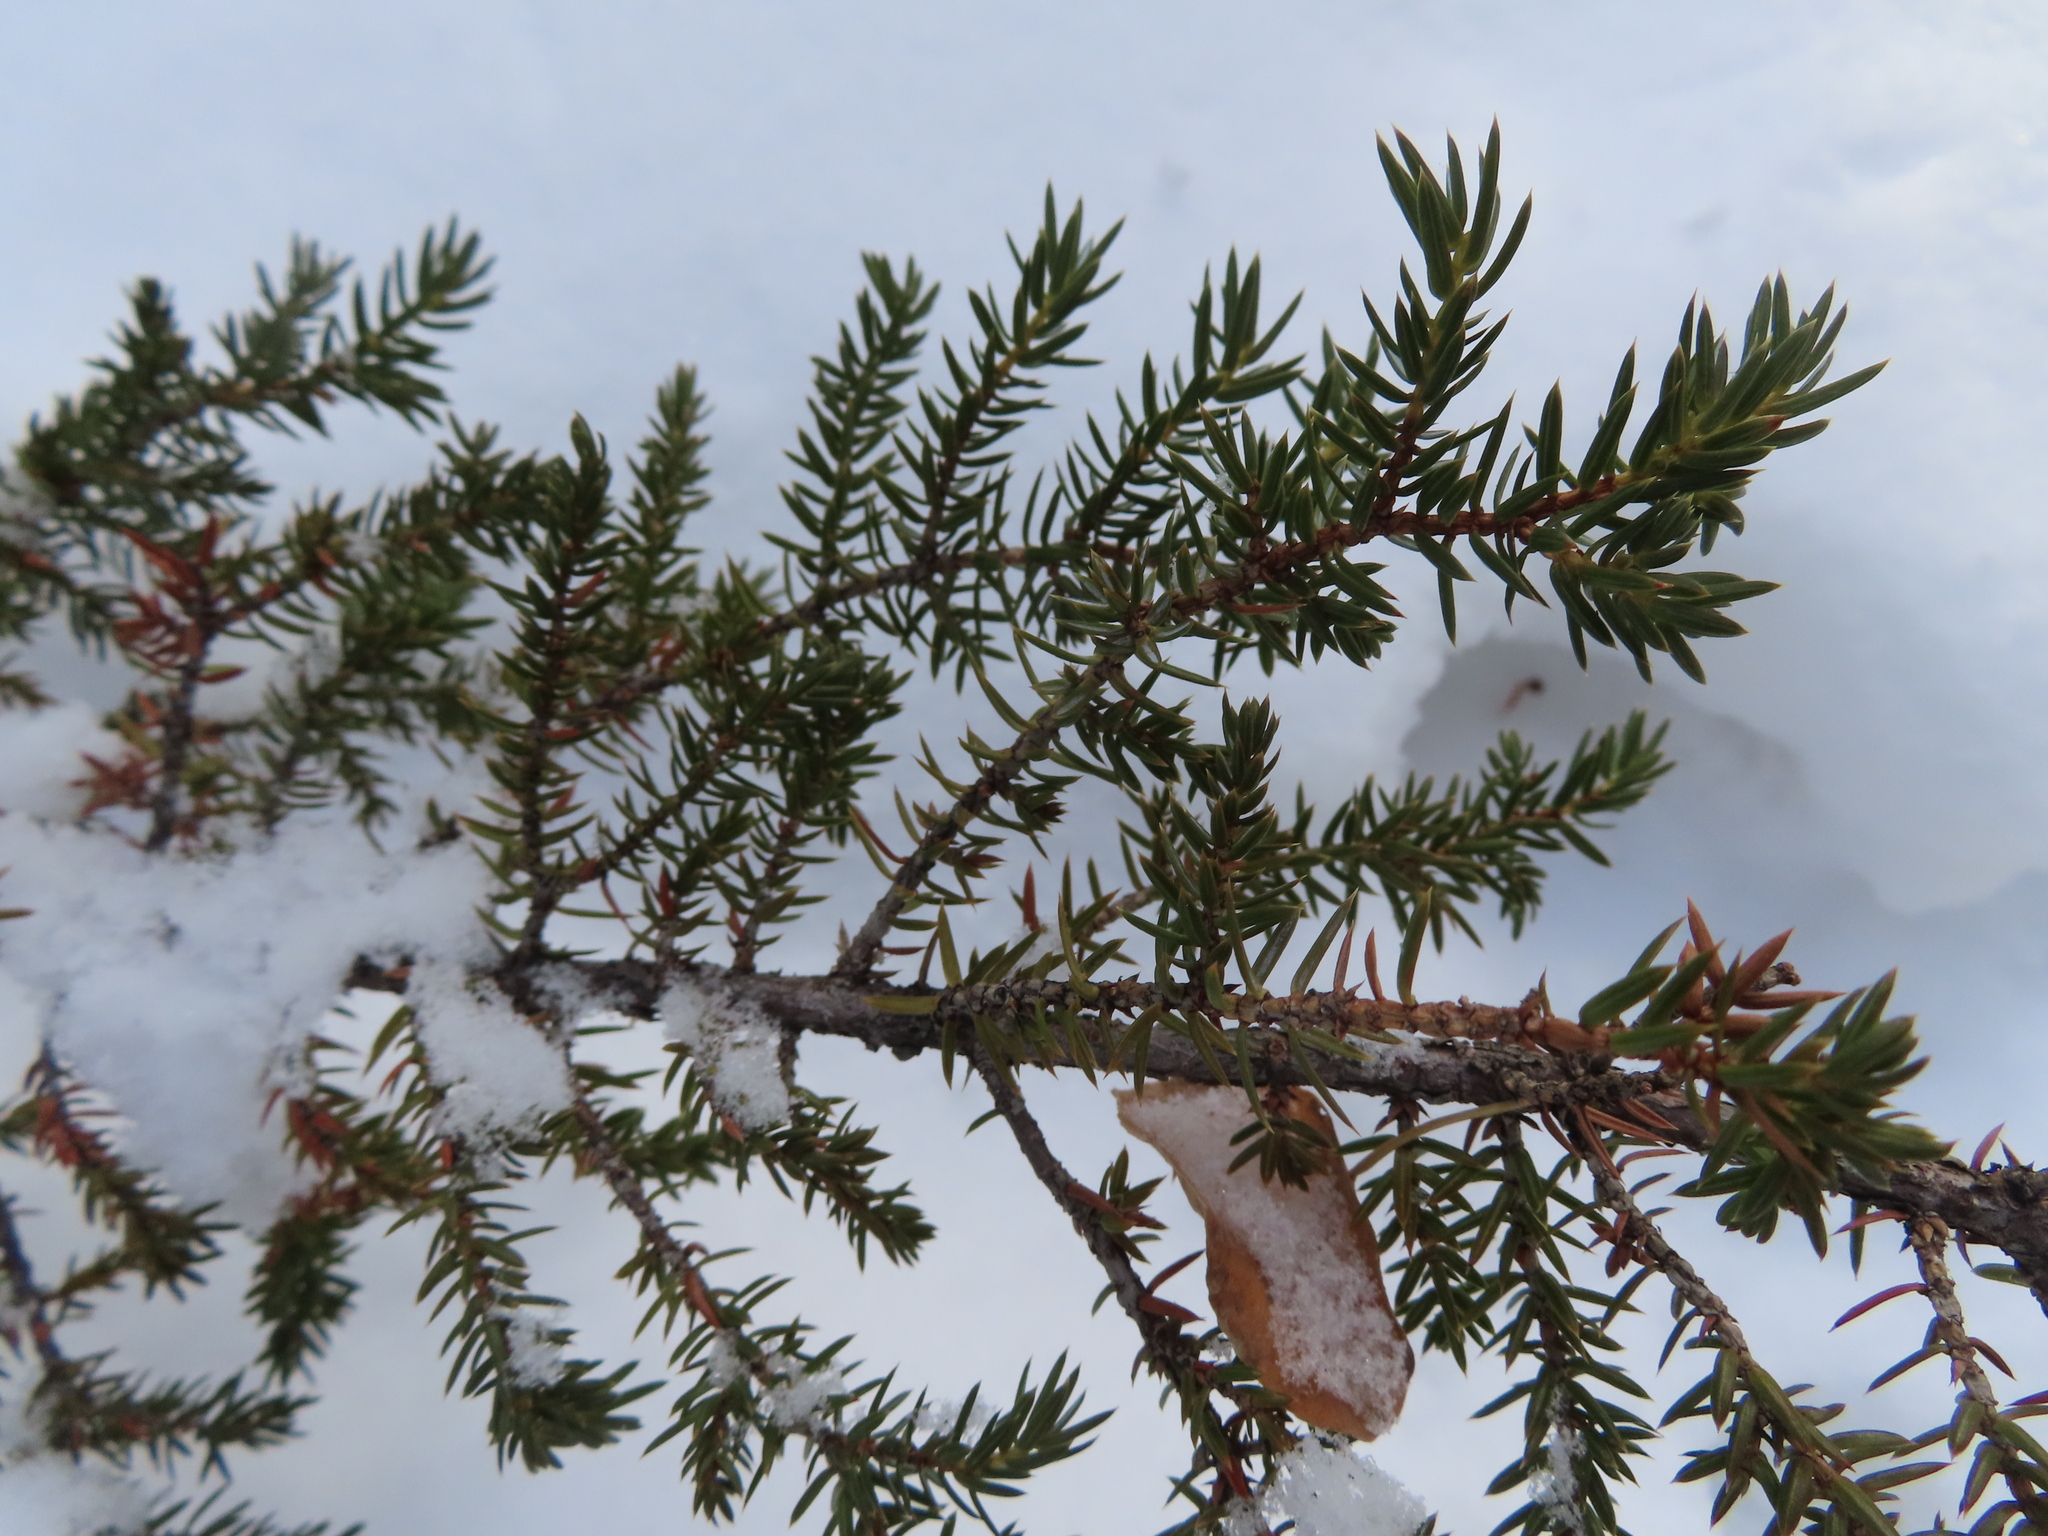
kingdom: Plantae
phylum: Tracheophyta
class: Pinopsida
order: Pinales
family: Cupressaceae
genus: Juniperus
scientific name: Juniperus communis
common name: Common juniper
